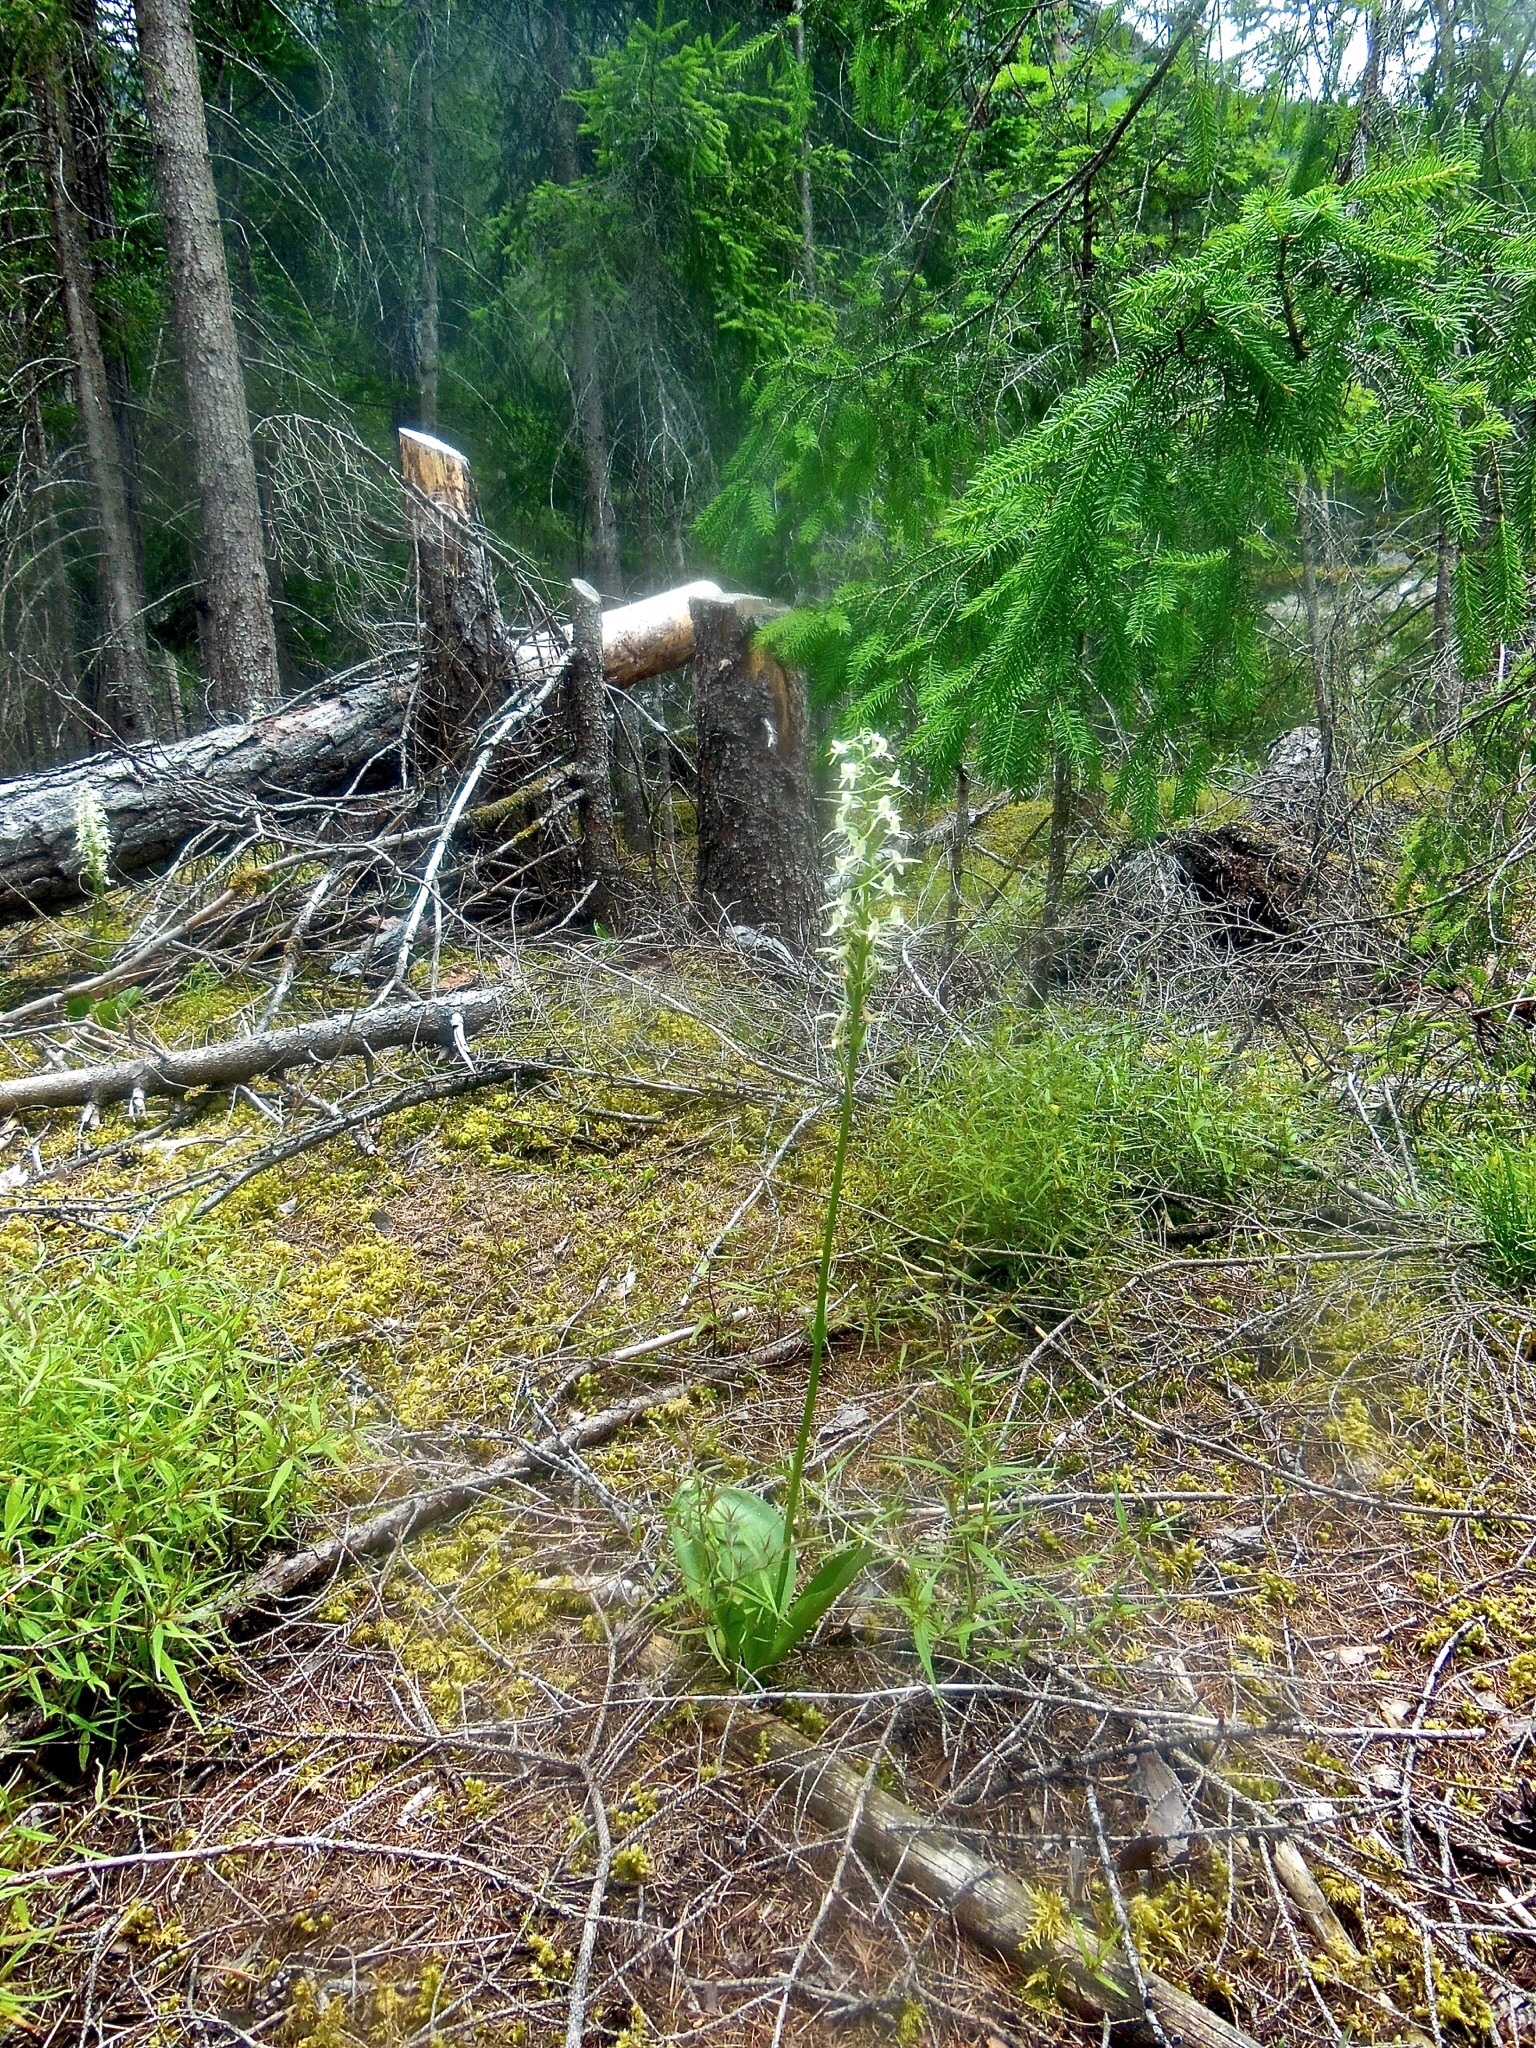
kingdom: Plantae
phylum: Tracheophyta
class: Liliopsida
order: Asparagales
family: Orchidaceae
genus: Platanthera
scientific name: Platanthera bifolia
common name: Lesser butterfly-orchid
